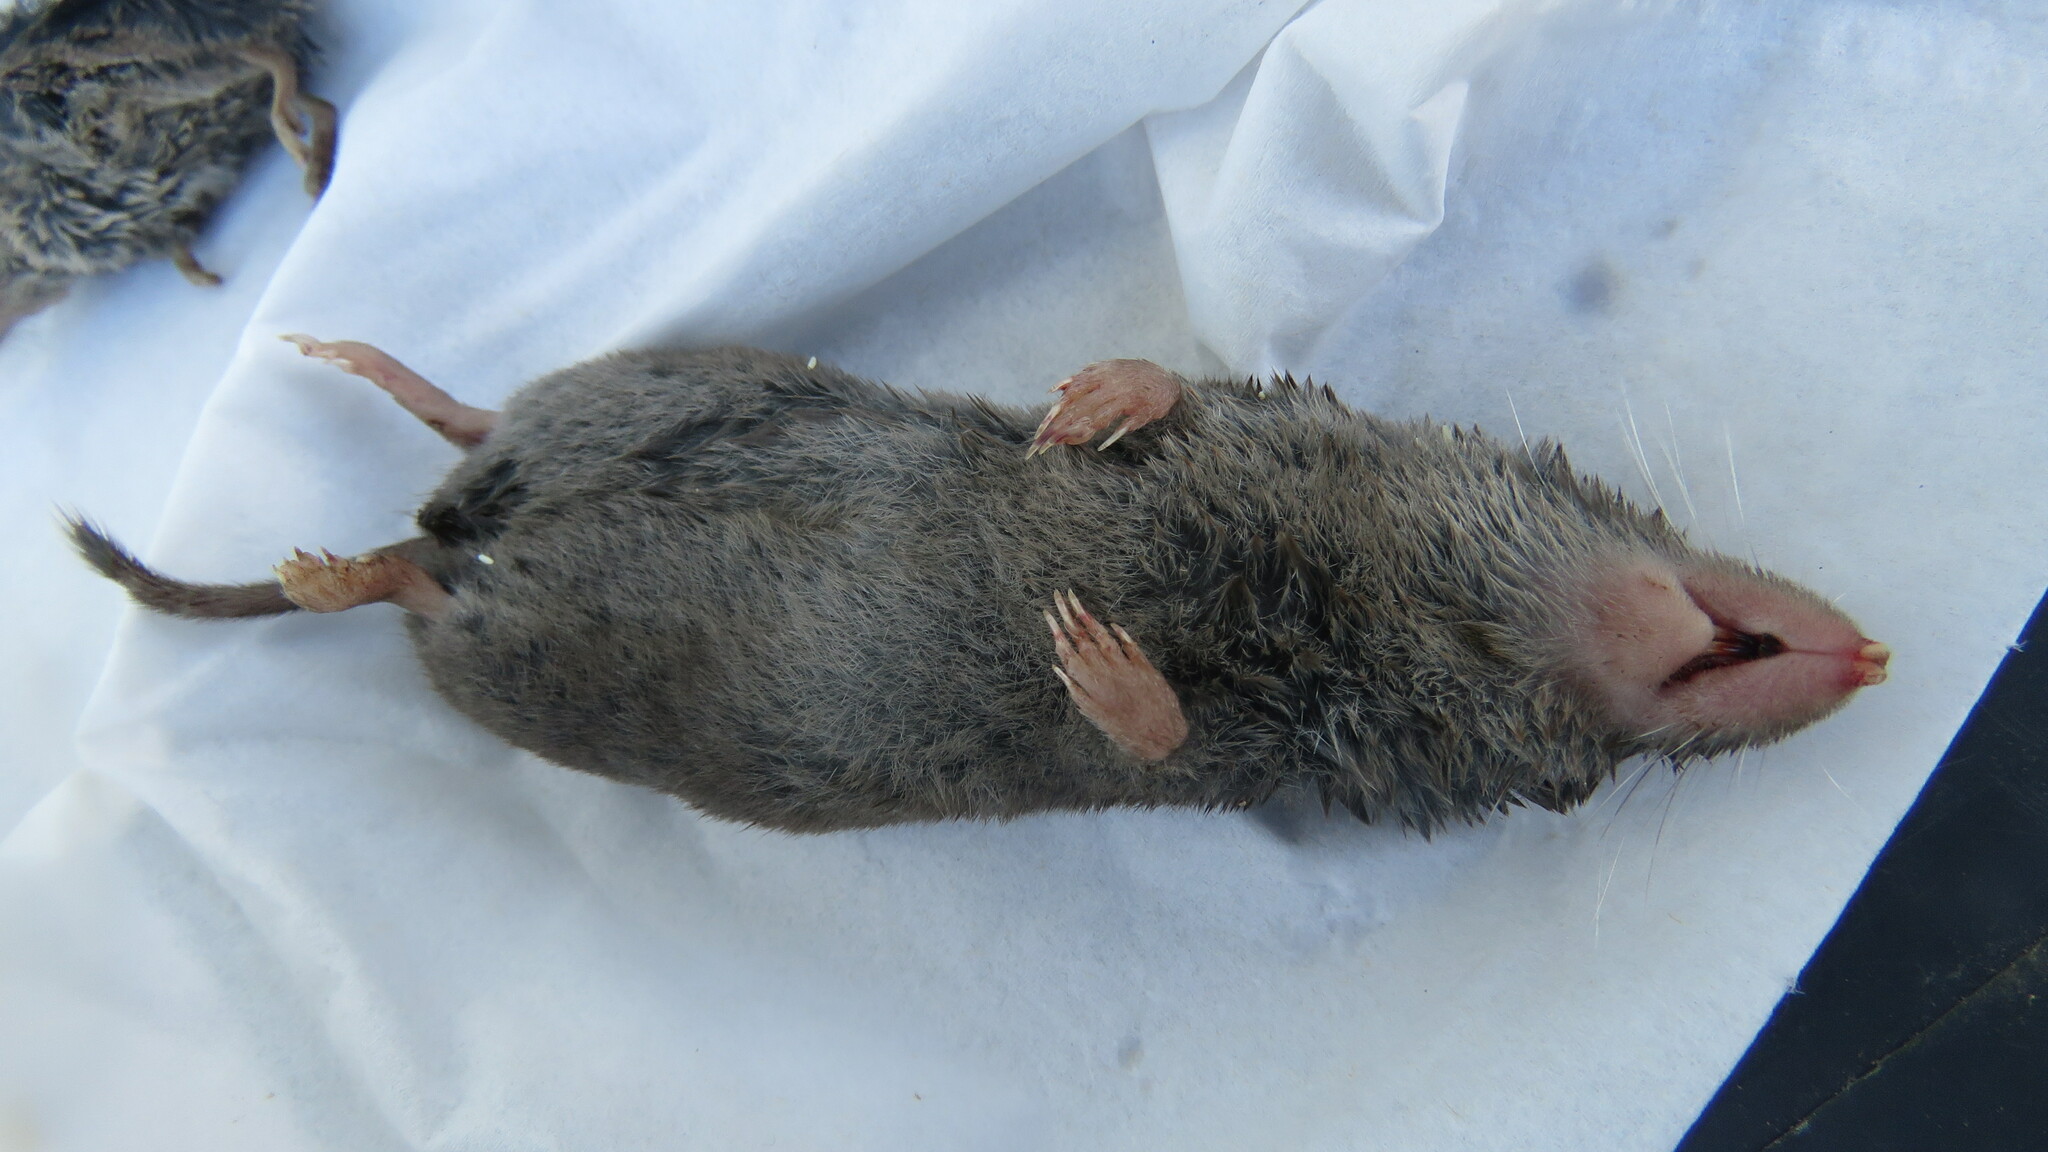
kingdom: Animalia
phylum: Chordata
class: Mammalia
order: Soricomorpha
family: Soricidae
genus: Blarina
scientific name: Blarina brevicauda
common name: Northern short-tailed shrew
